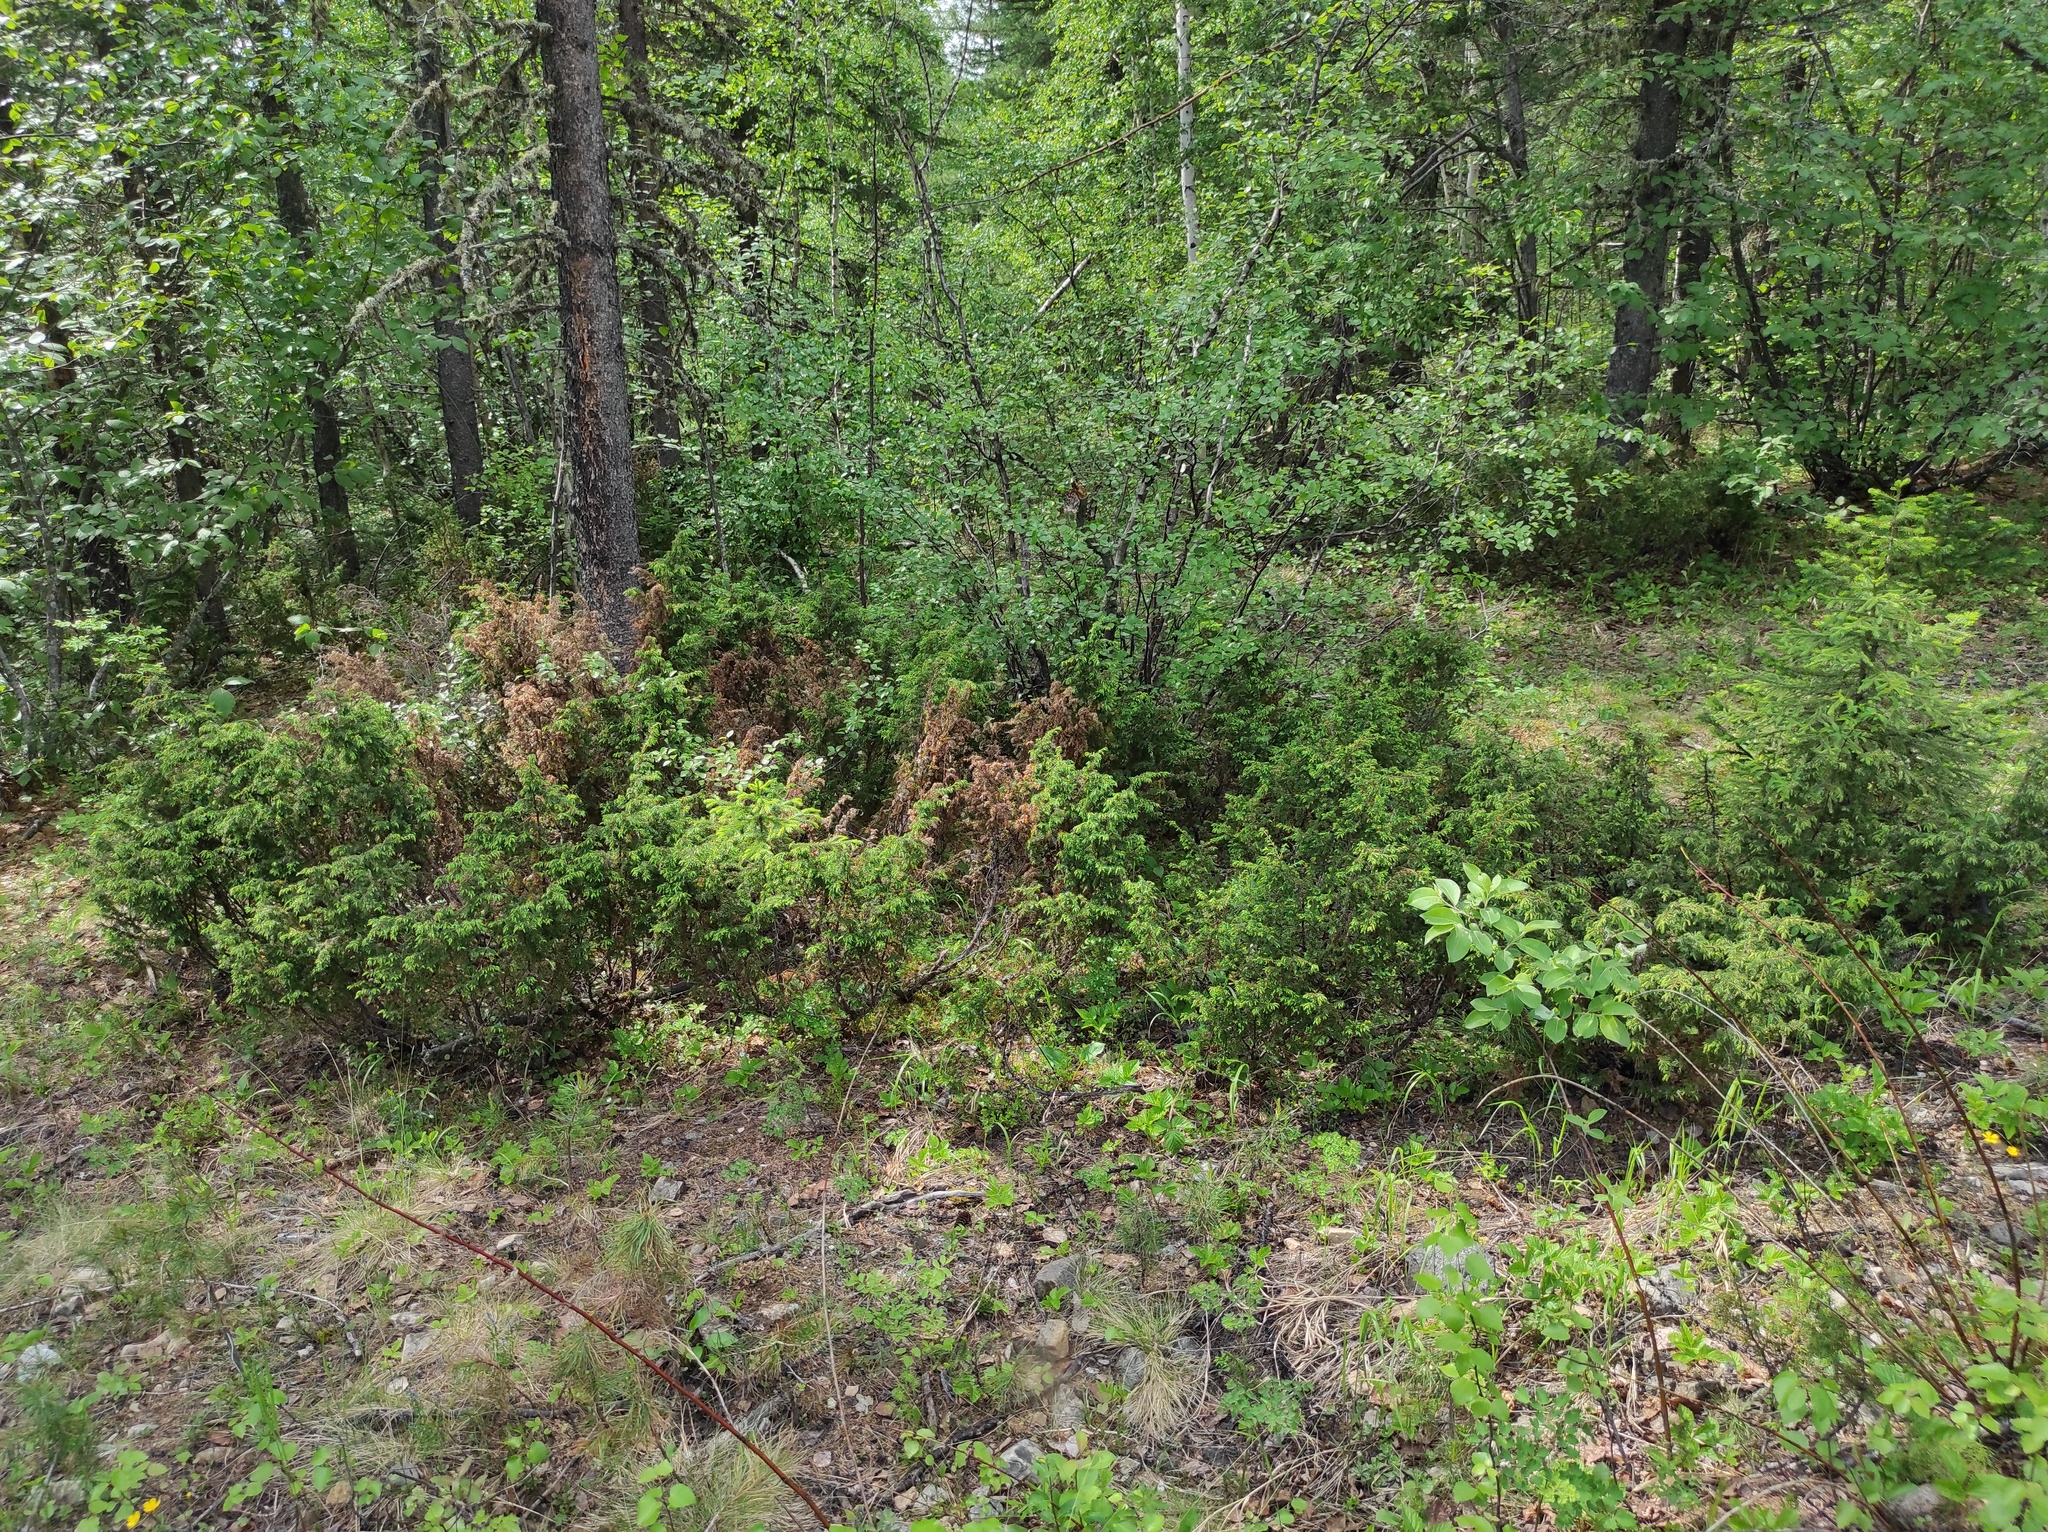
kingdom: Plantae
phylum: Tracheophyta
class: Pinopsida
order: Pinales
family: Cupressaceae
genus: Juniperus
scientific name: Juniperus communis
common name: Common juniper
